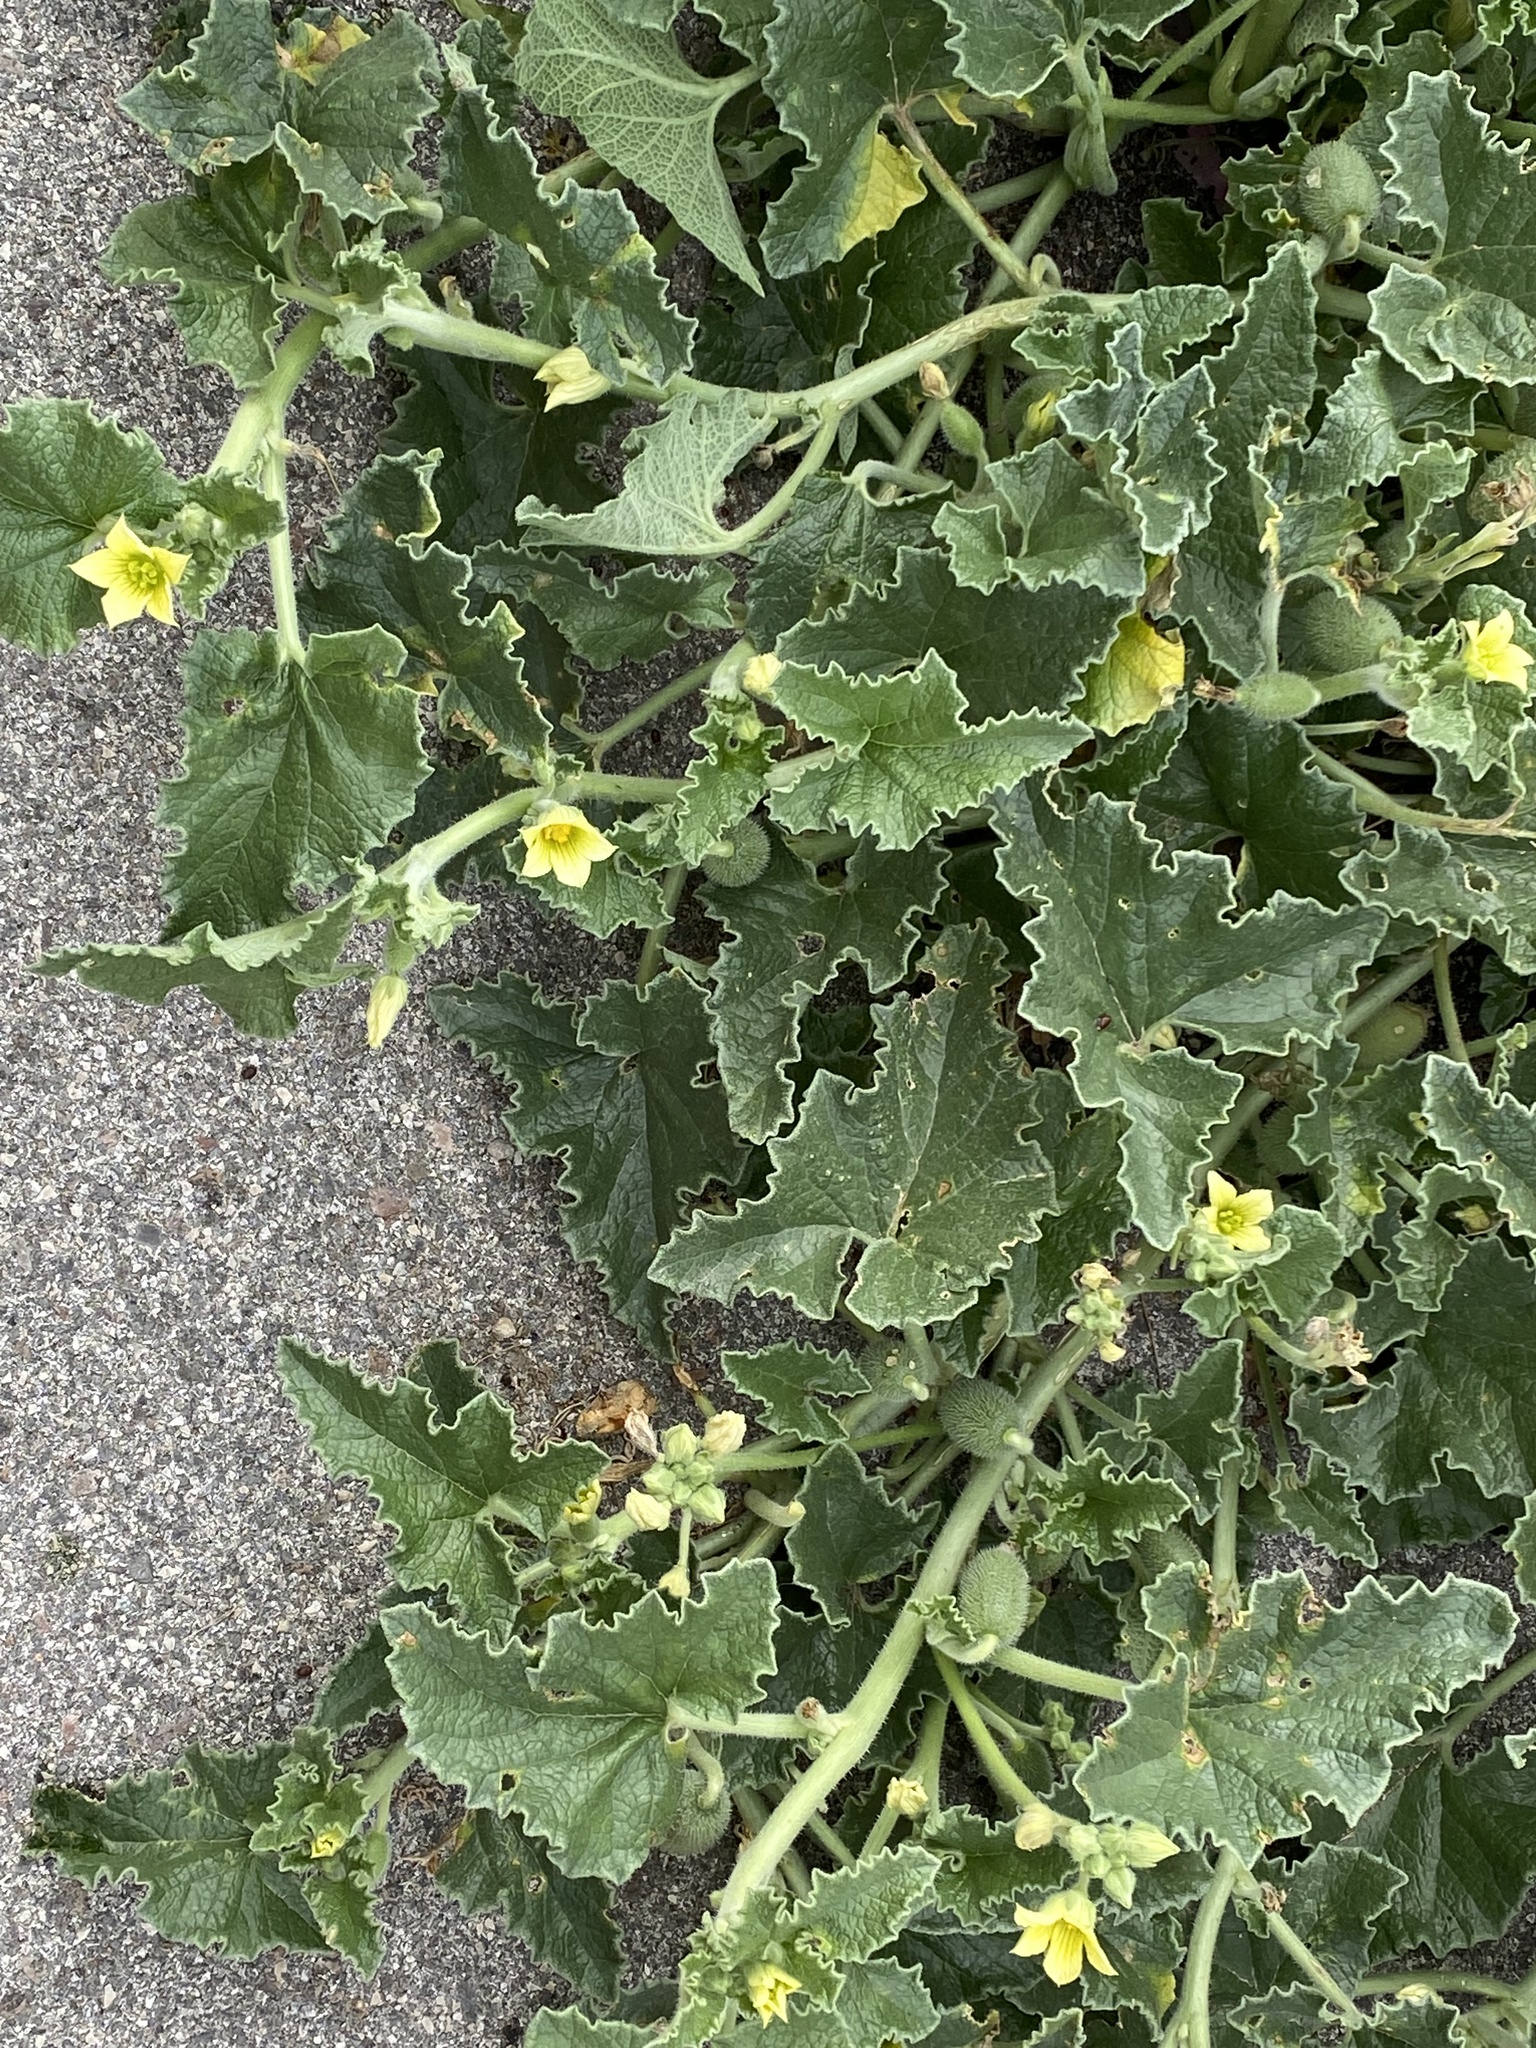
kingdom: Plantae
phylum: Tracheophyta
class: Magnoliopsida
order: Cucurbitales
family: Cucurbitaceae
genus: Ecballium
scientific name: Ecballium elaterium
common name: Squirting cucumber
